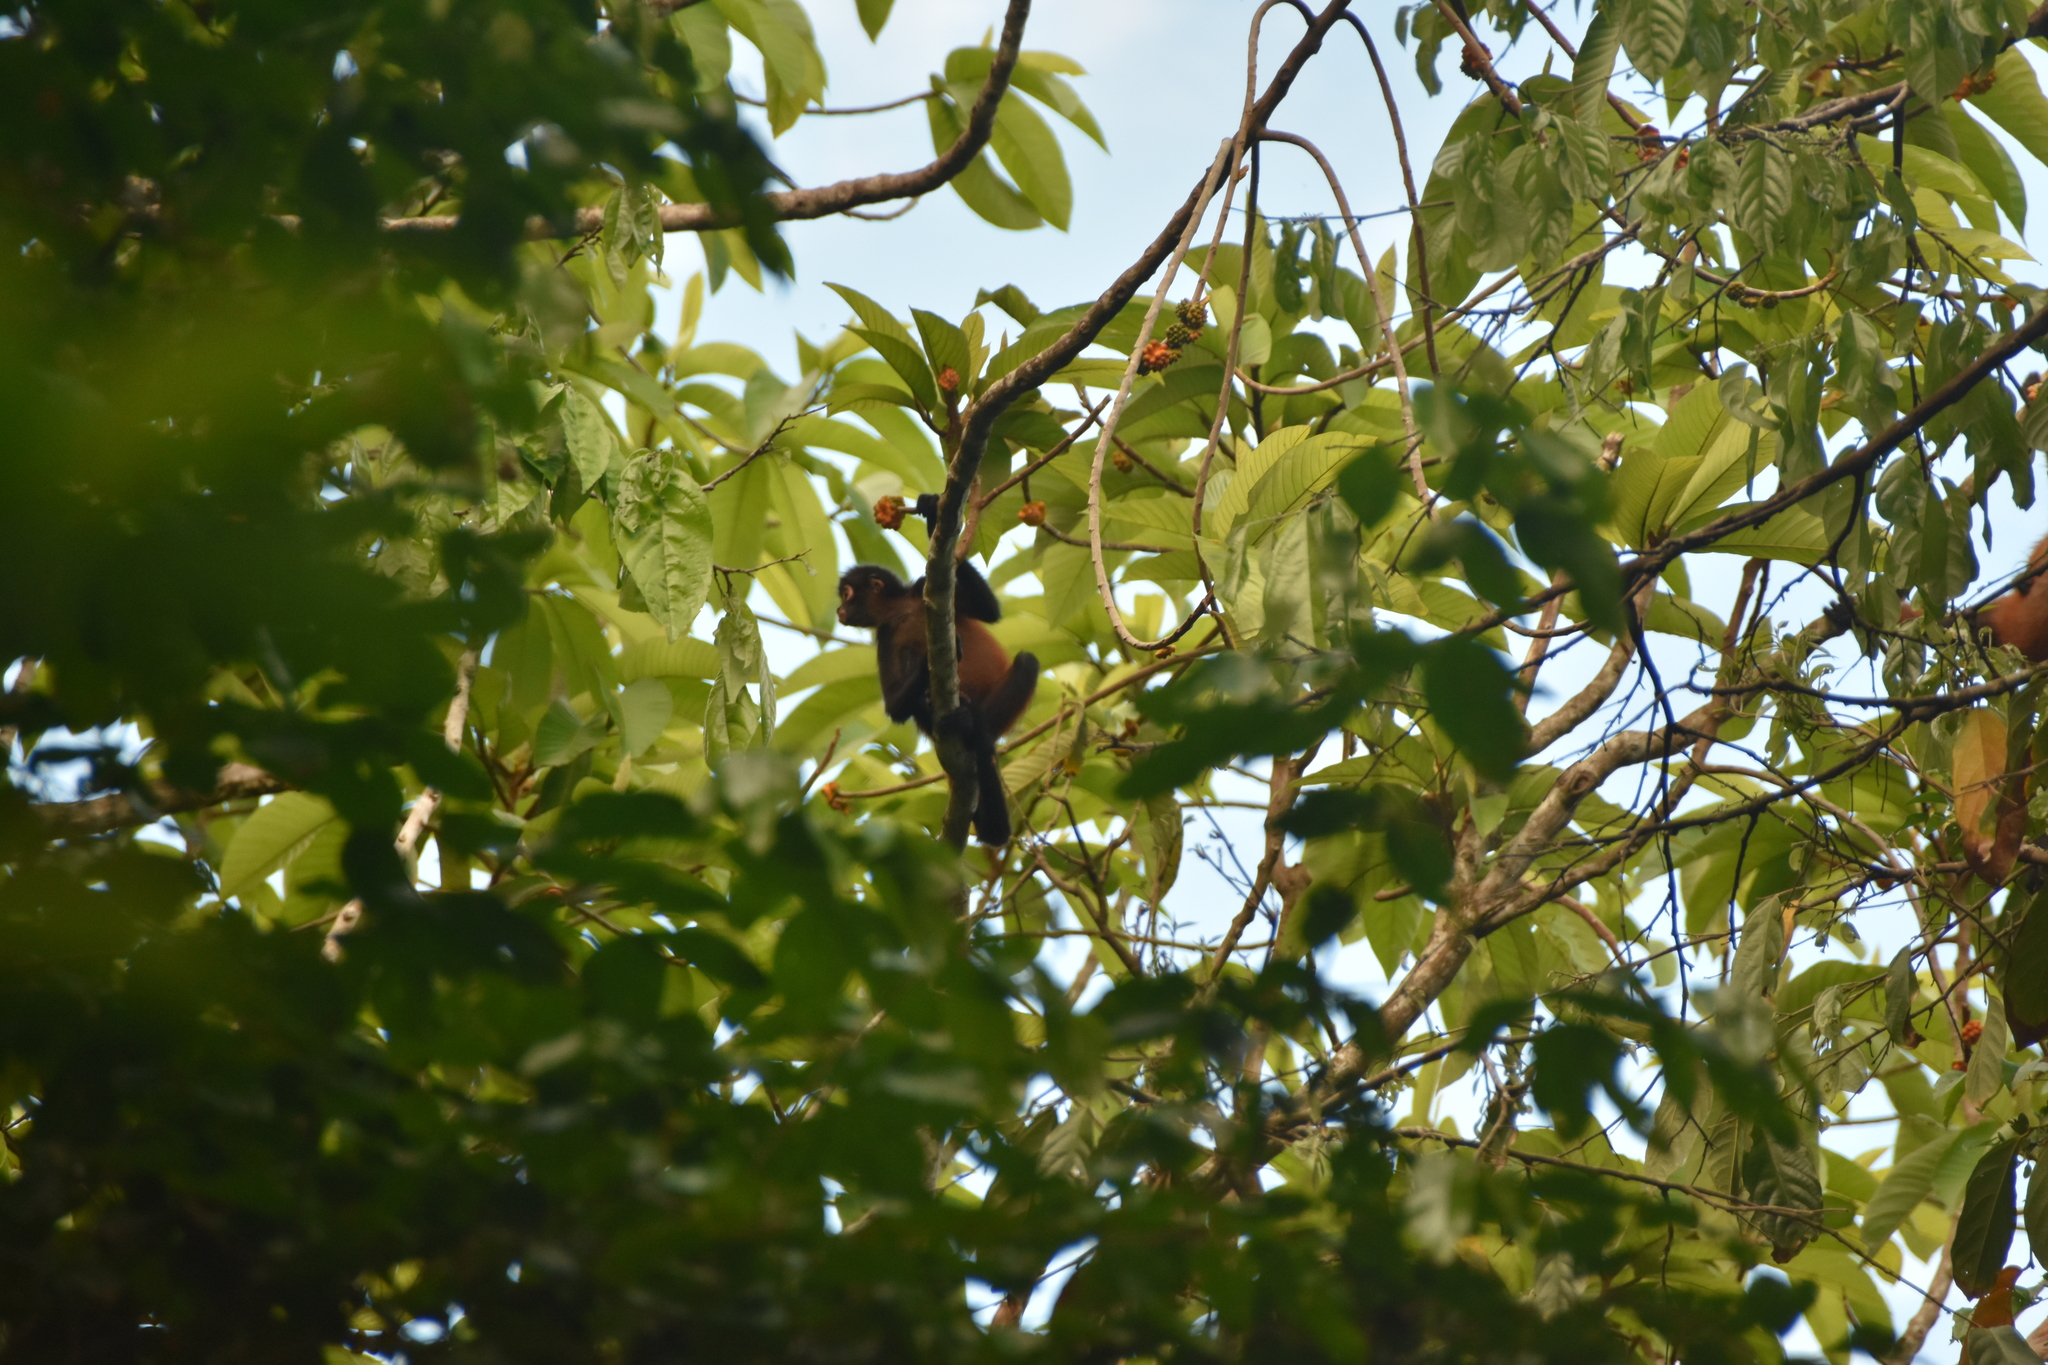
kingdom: Animalia
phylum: Chordata
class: Mammalia
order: Primates
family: Atelidae
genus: Ateles
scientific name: Ateles geoffroyi
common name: Black-handed spider monkey
